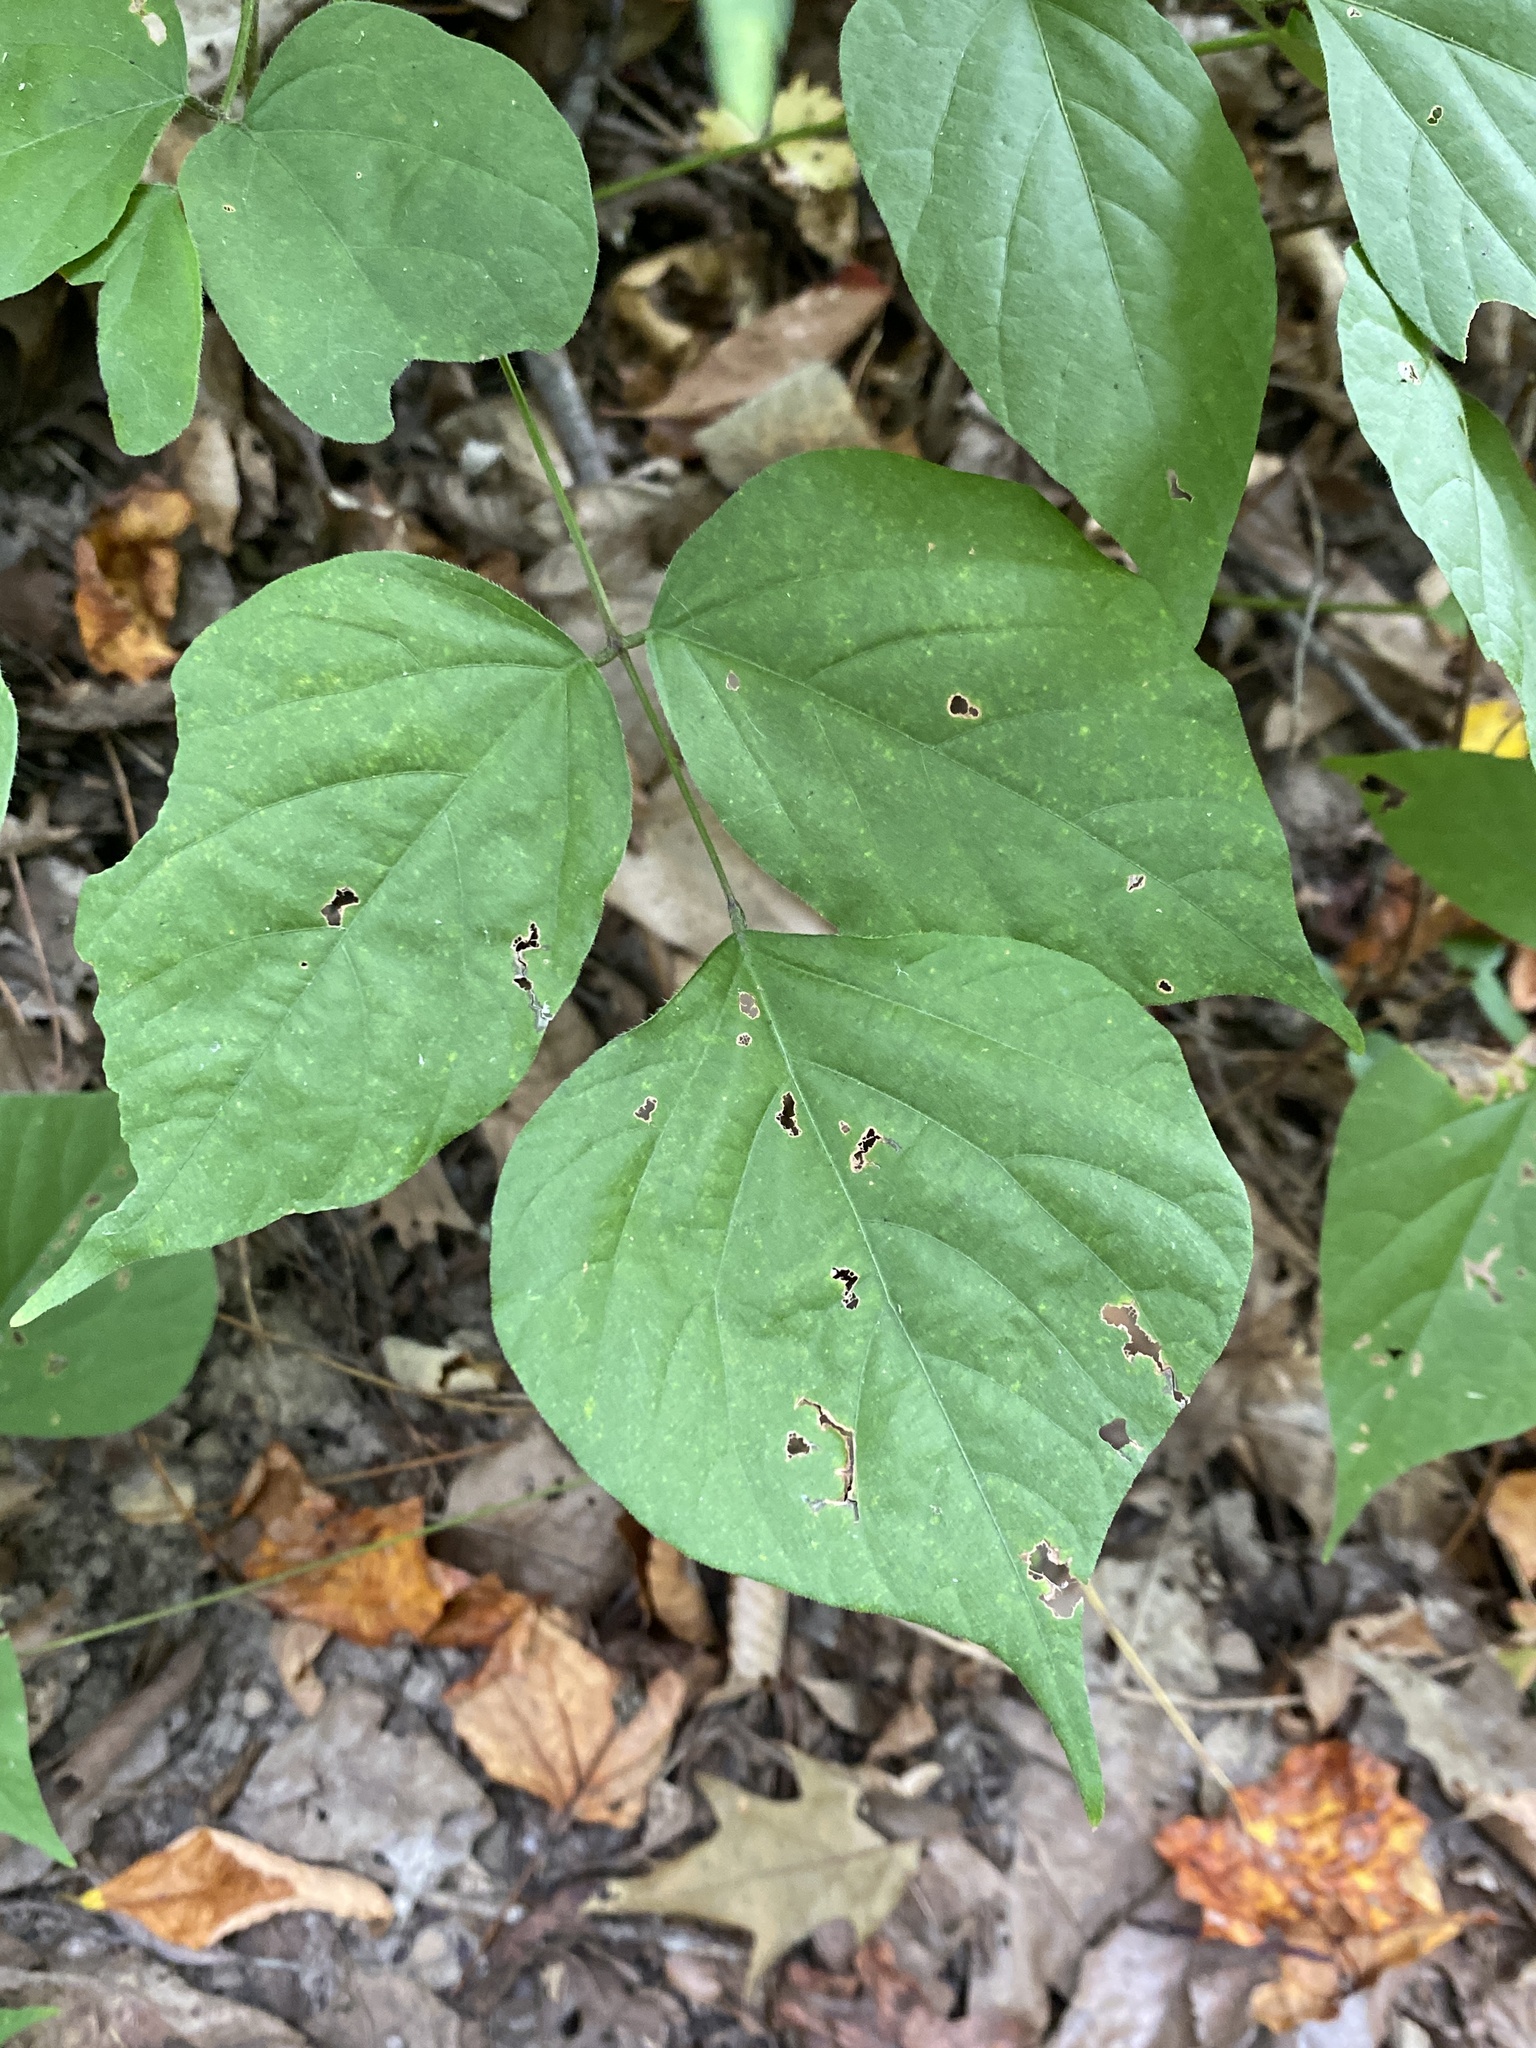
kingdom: Plantae
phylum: Tracheophyta
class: Magnoliopsida
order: Fabales
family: Fabaceae
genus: Hylodesmum
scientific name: Hylodesmum glutinosum
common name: Clustered-leaved tick-trefoil
